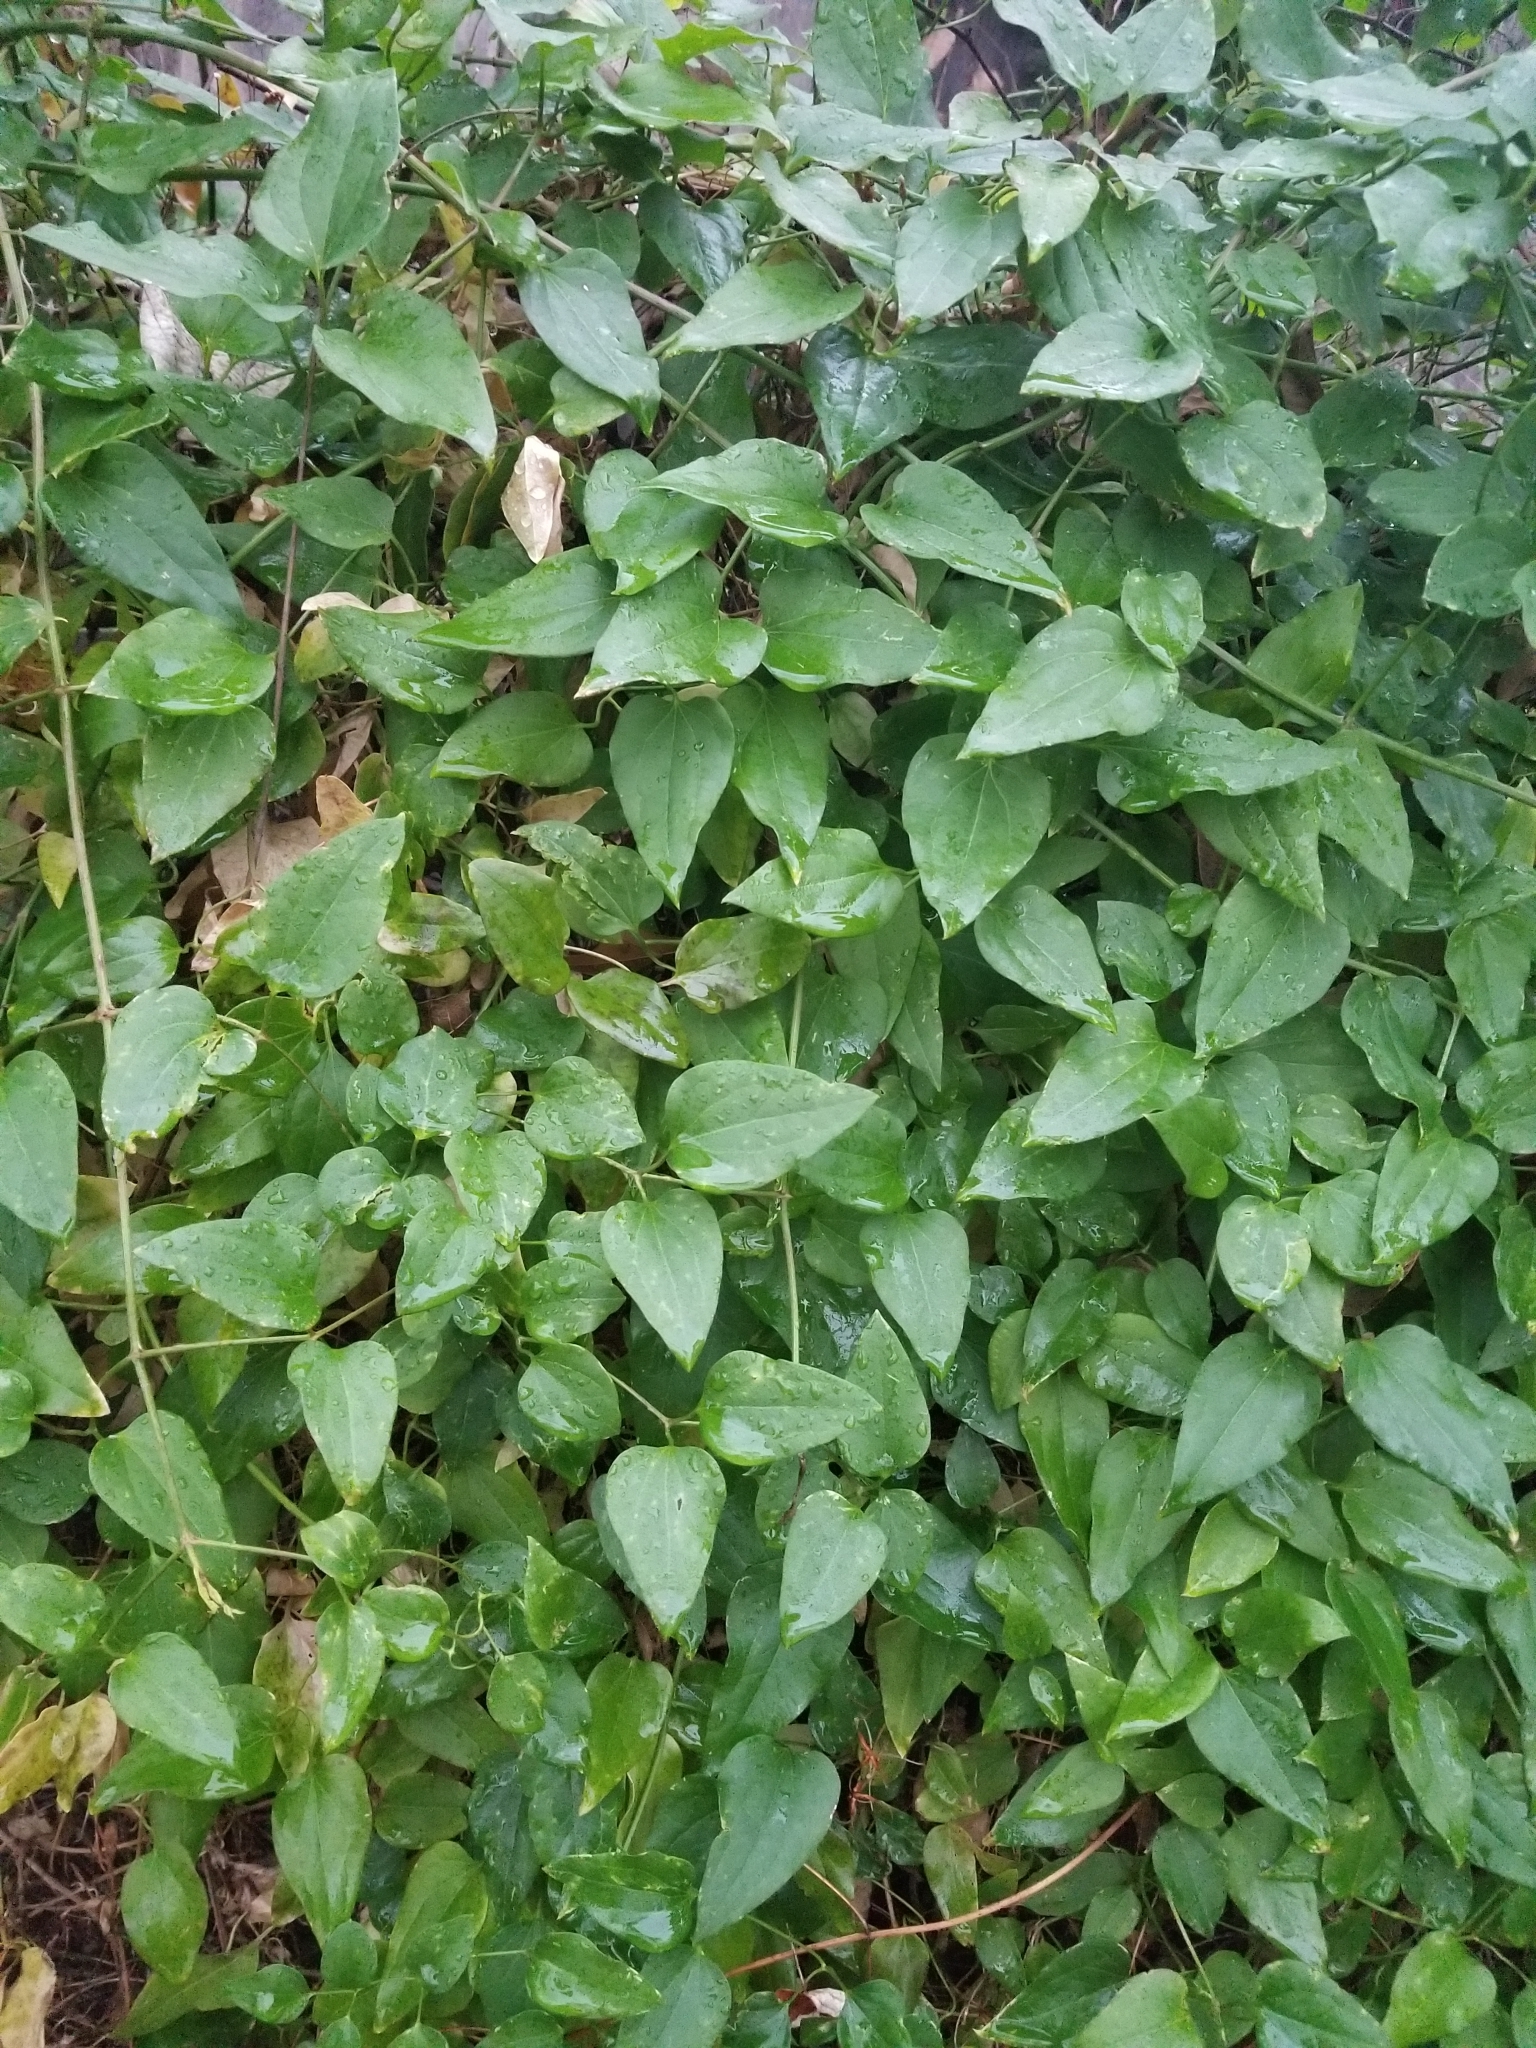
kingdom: Plantae
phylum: Tracheophyta
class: Magnoliopsida
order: Ranunculales
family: Ranunculaceae
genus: Clematis
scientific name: Clematis terniflora
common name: Sweet autumn clematis
